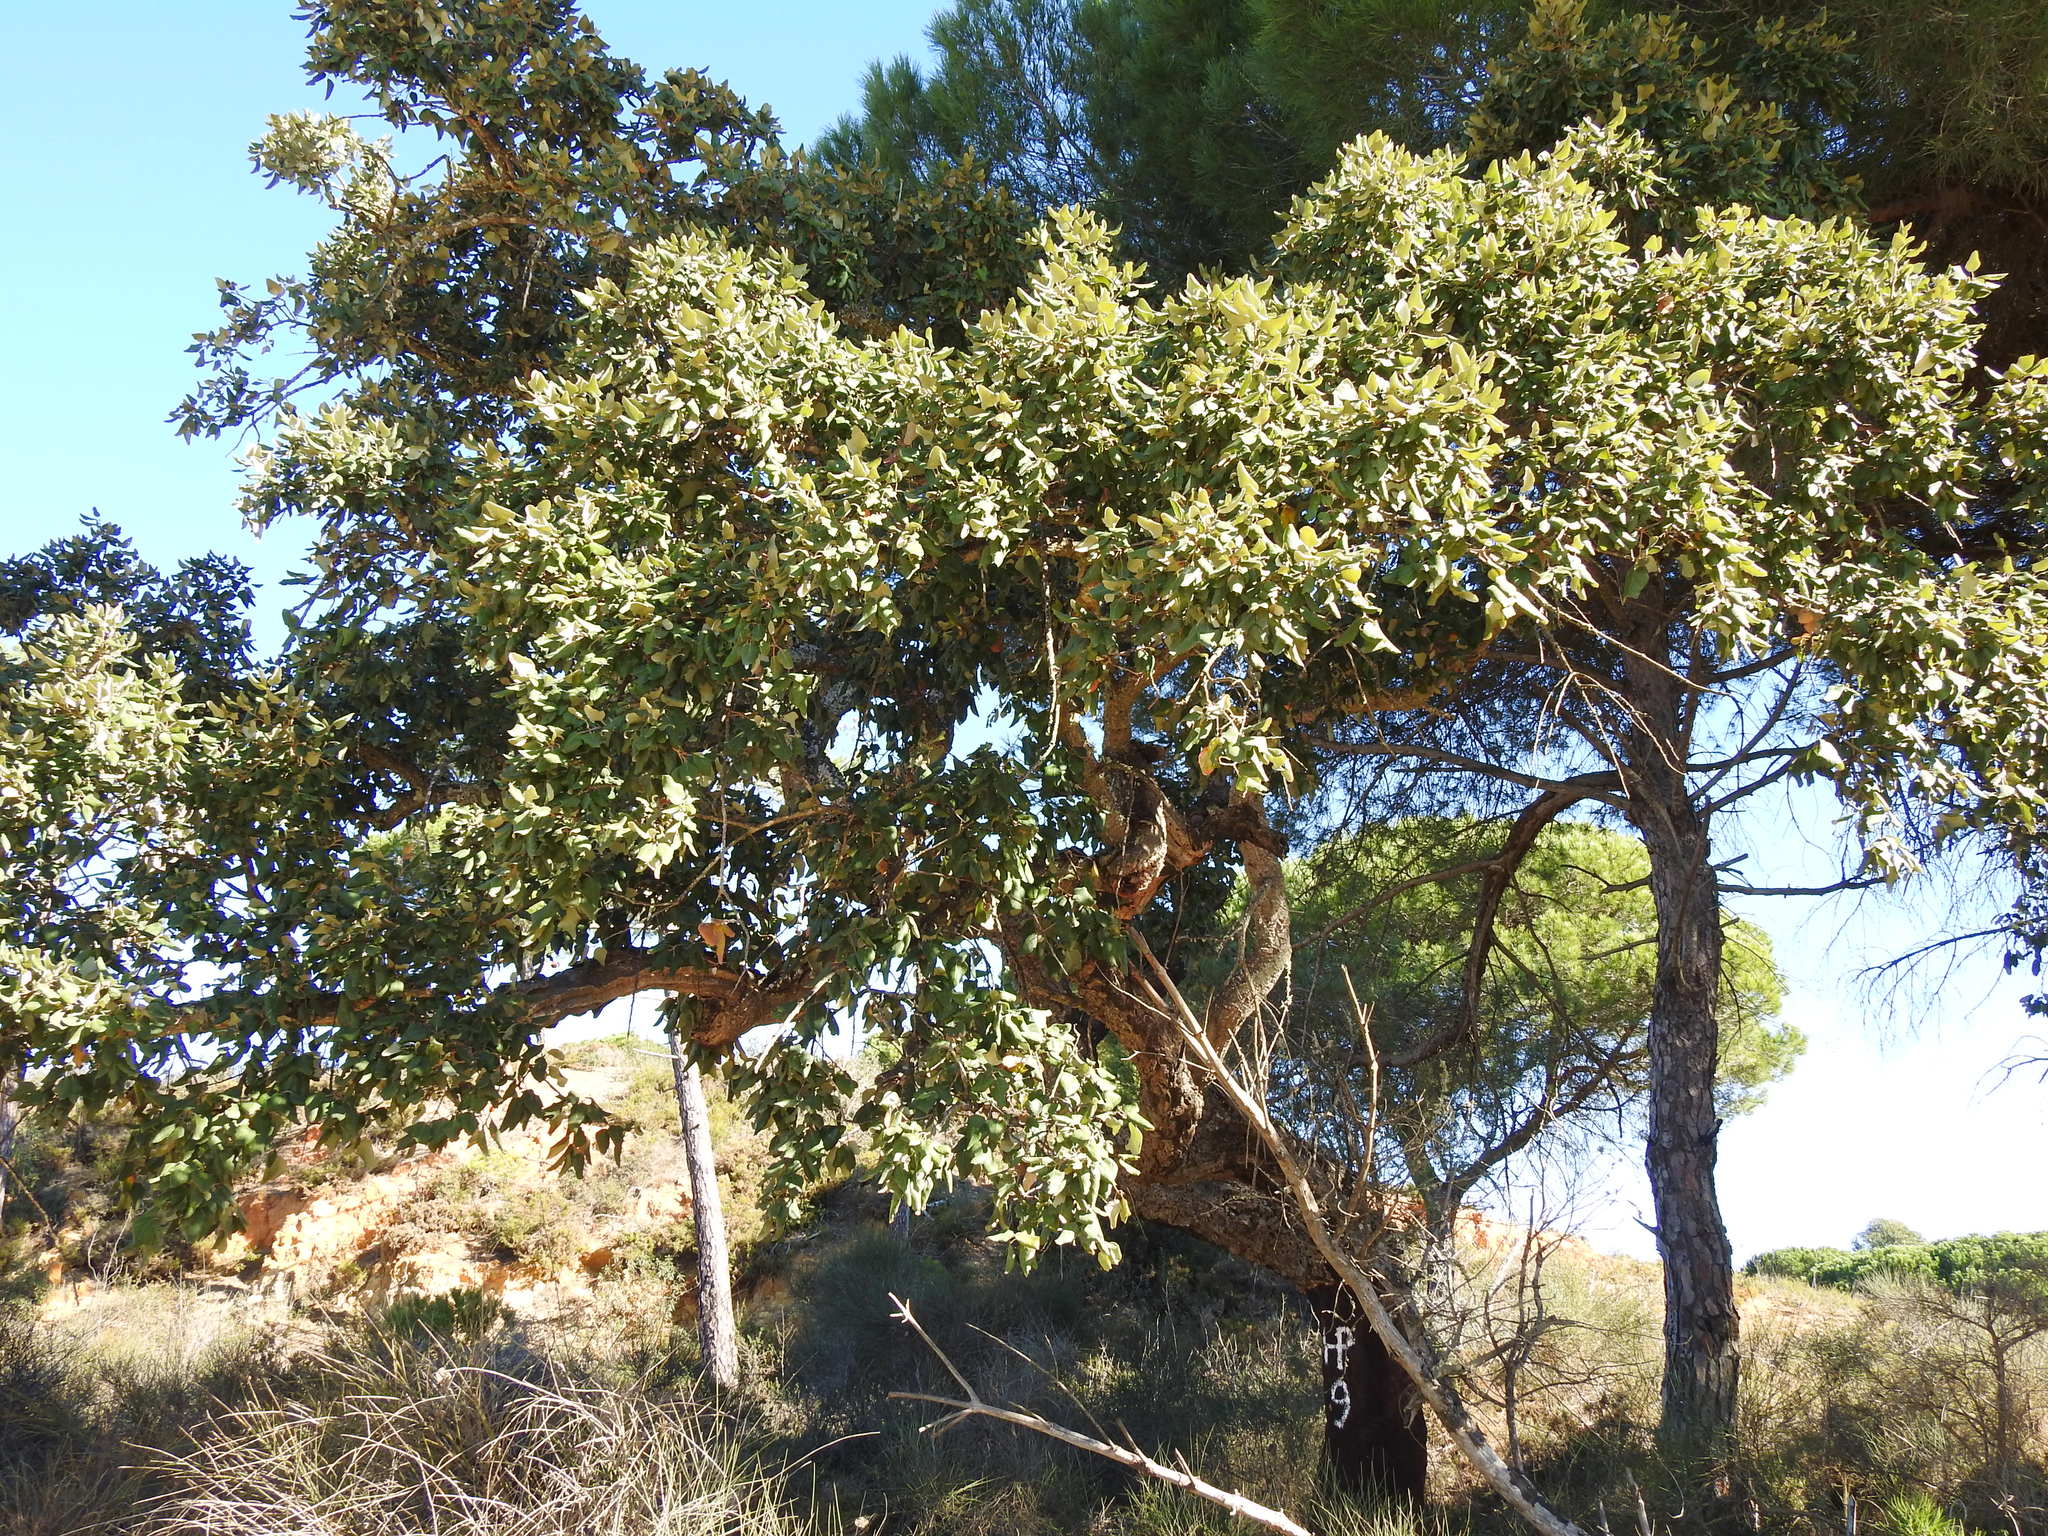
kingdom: Plantae
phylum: Tracheophyta
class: Magnoliopsida
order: Fagales
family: Fagaceae
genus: Quercus
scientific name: Quercus suber
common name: Cork oak
